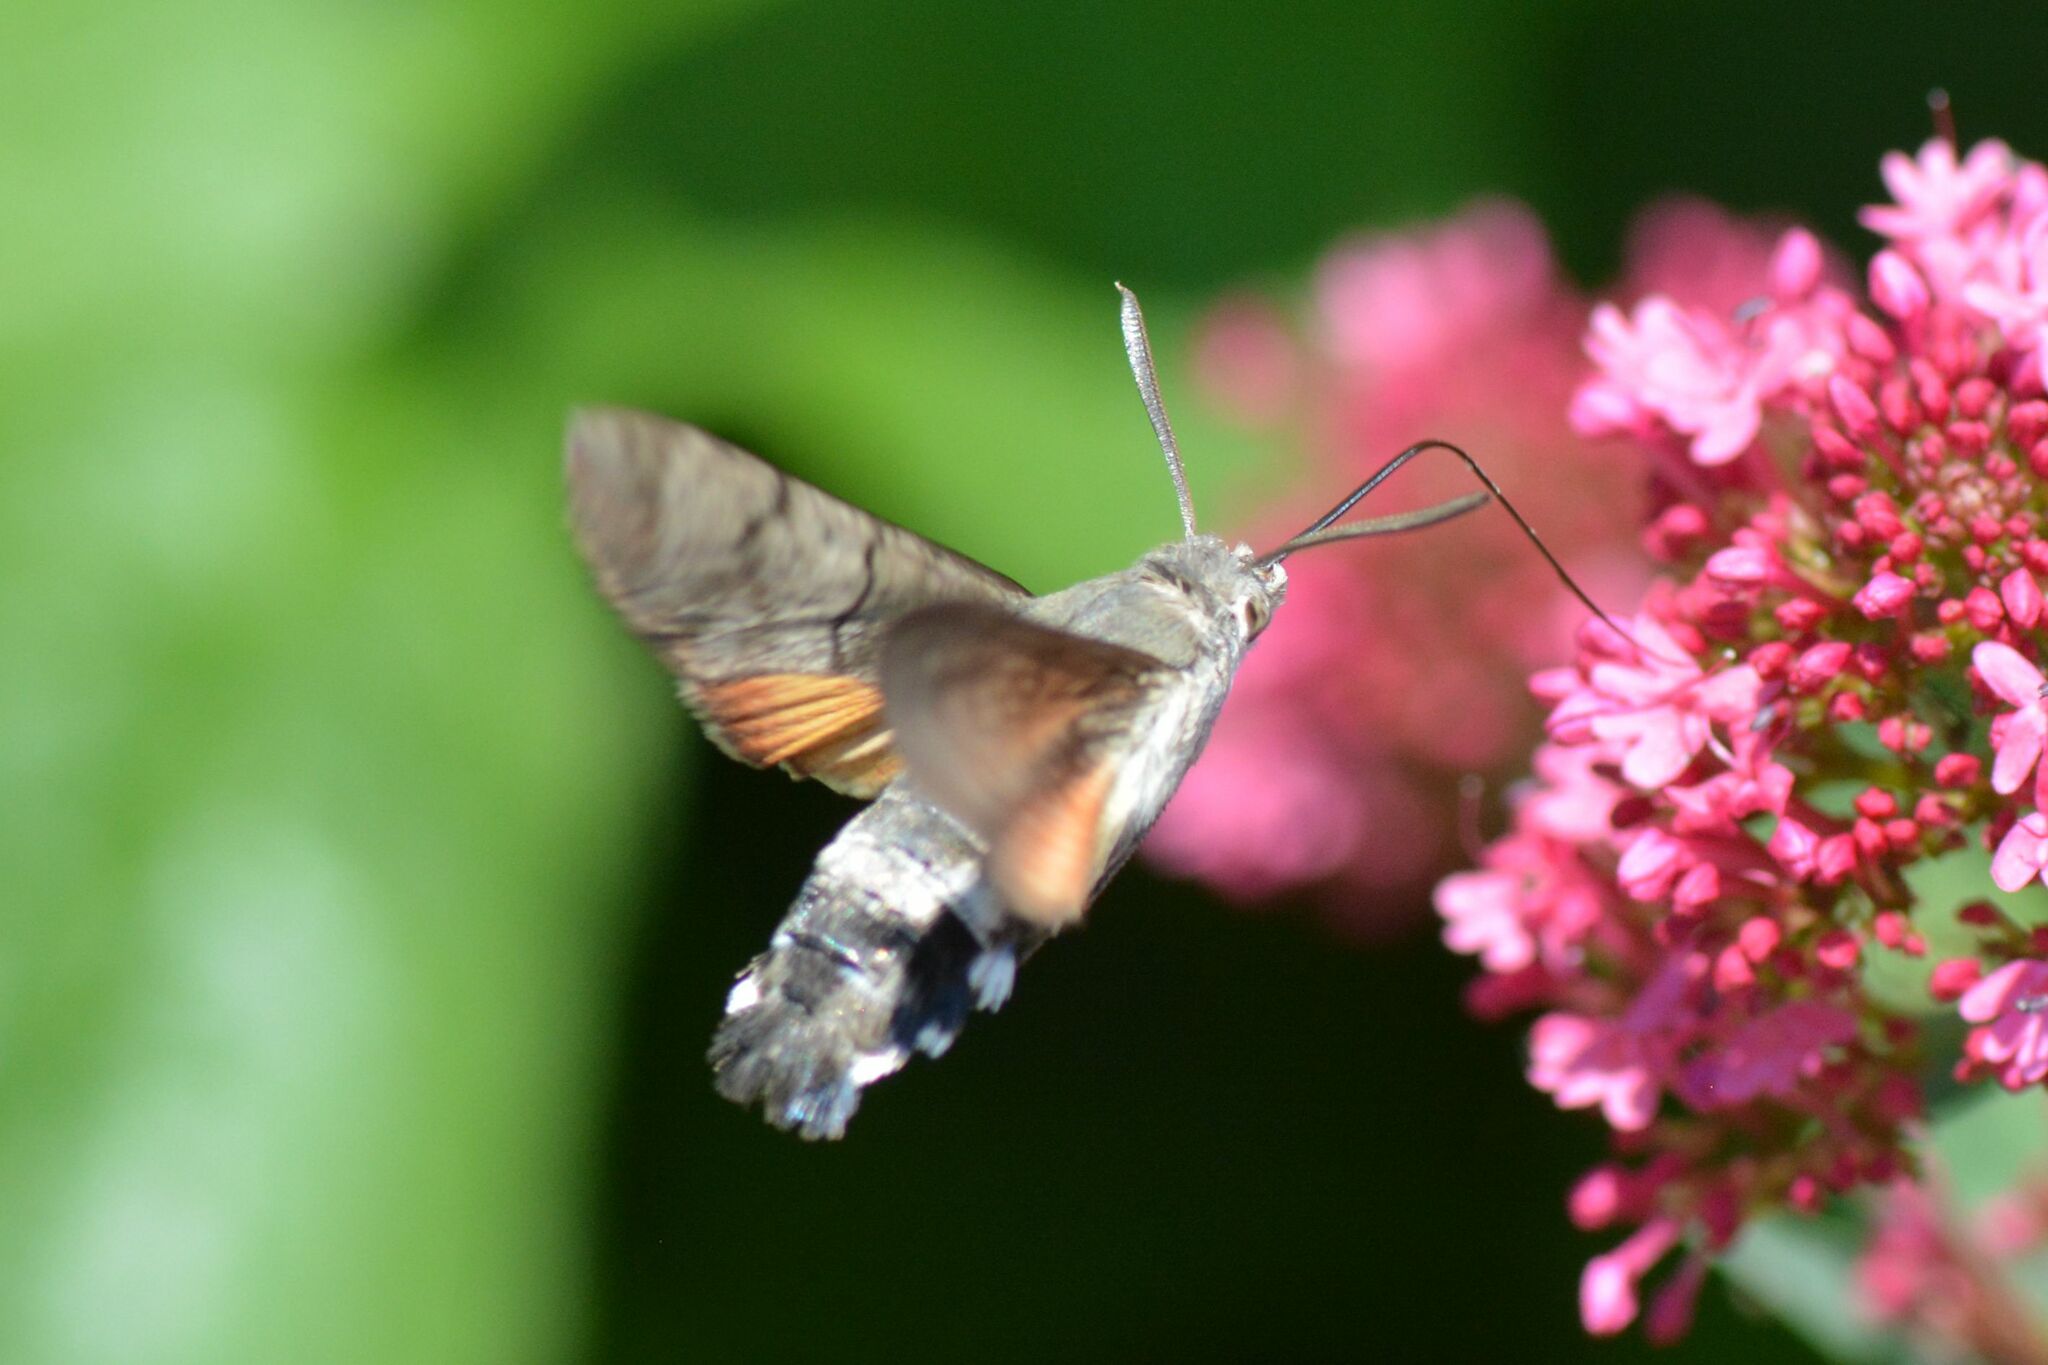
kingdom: Animalia
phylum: Arthropoda
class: Insecta
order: Lepidoptera
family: Sphingidae
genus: Macroglossum
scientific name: Macroglossum stellatarum
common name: Humming-bird hawk-moth
